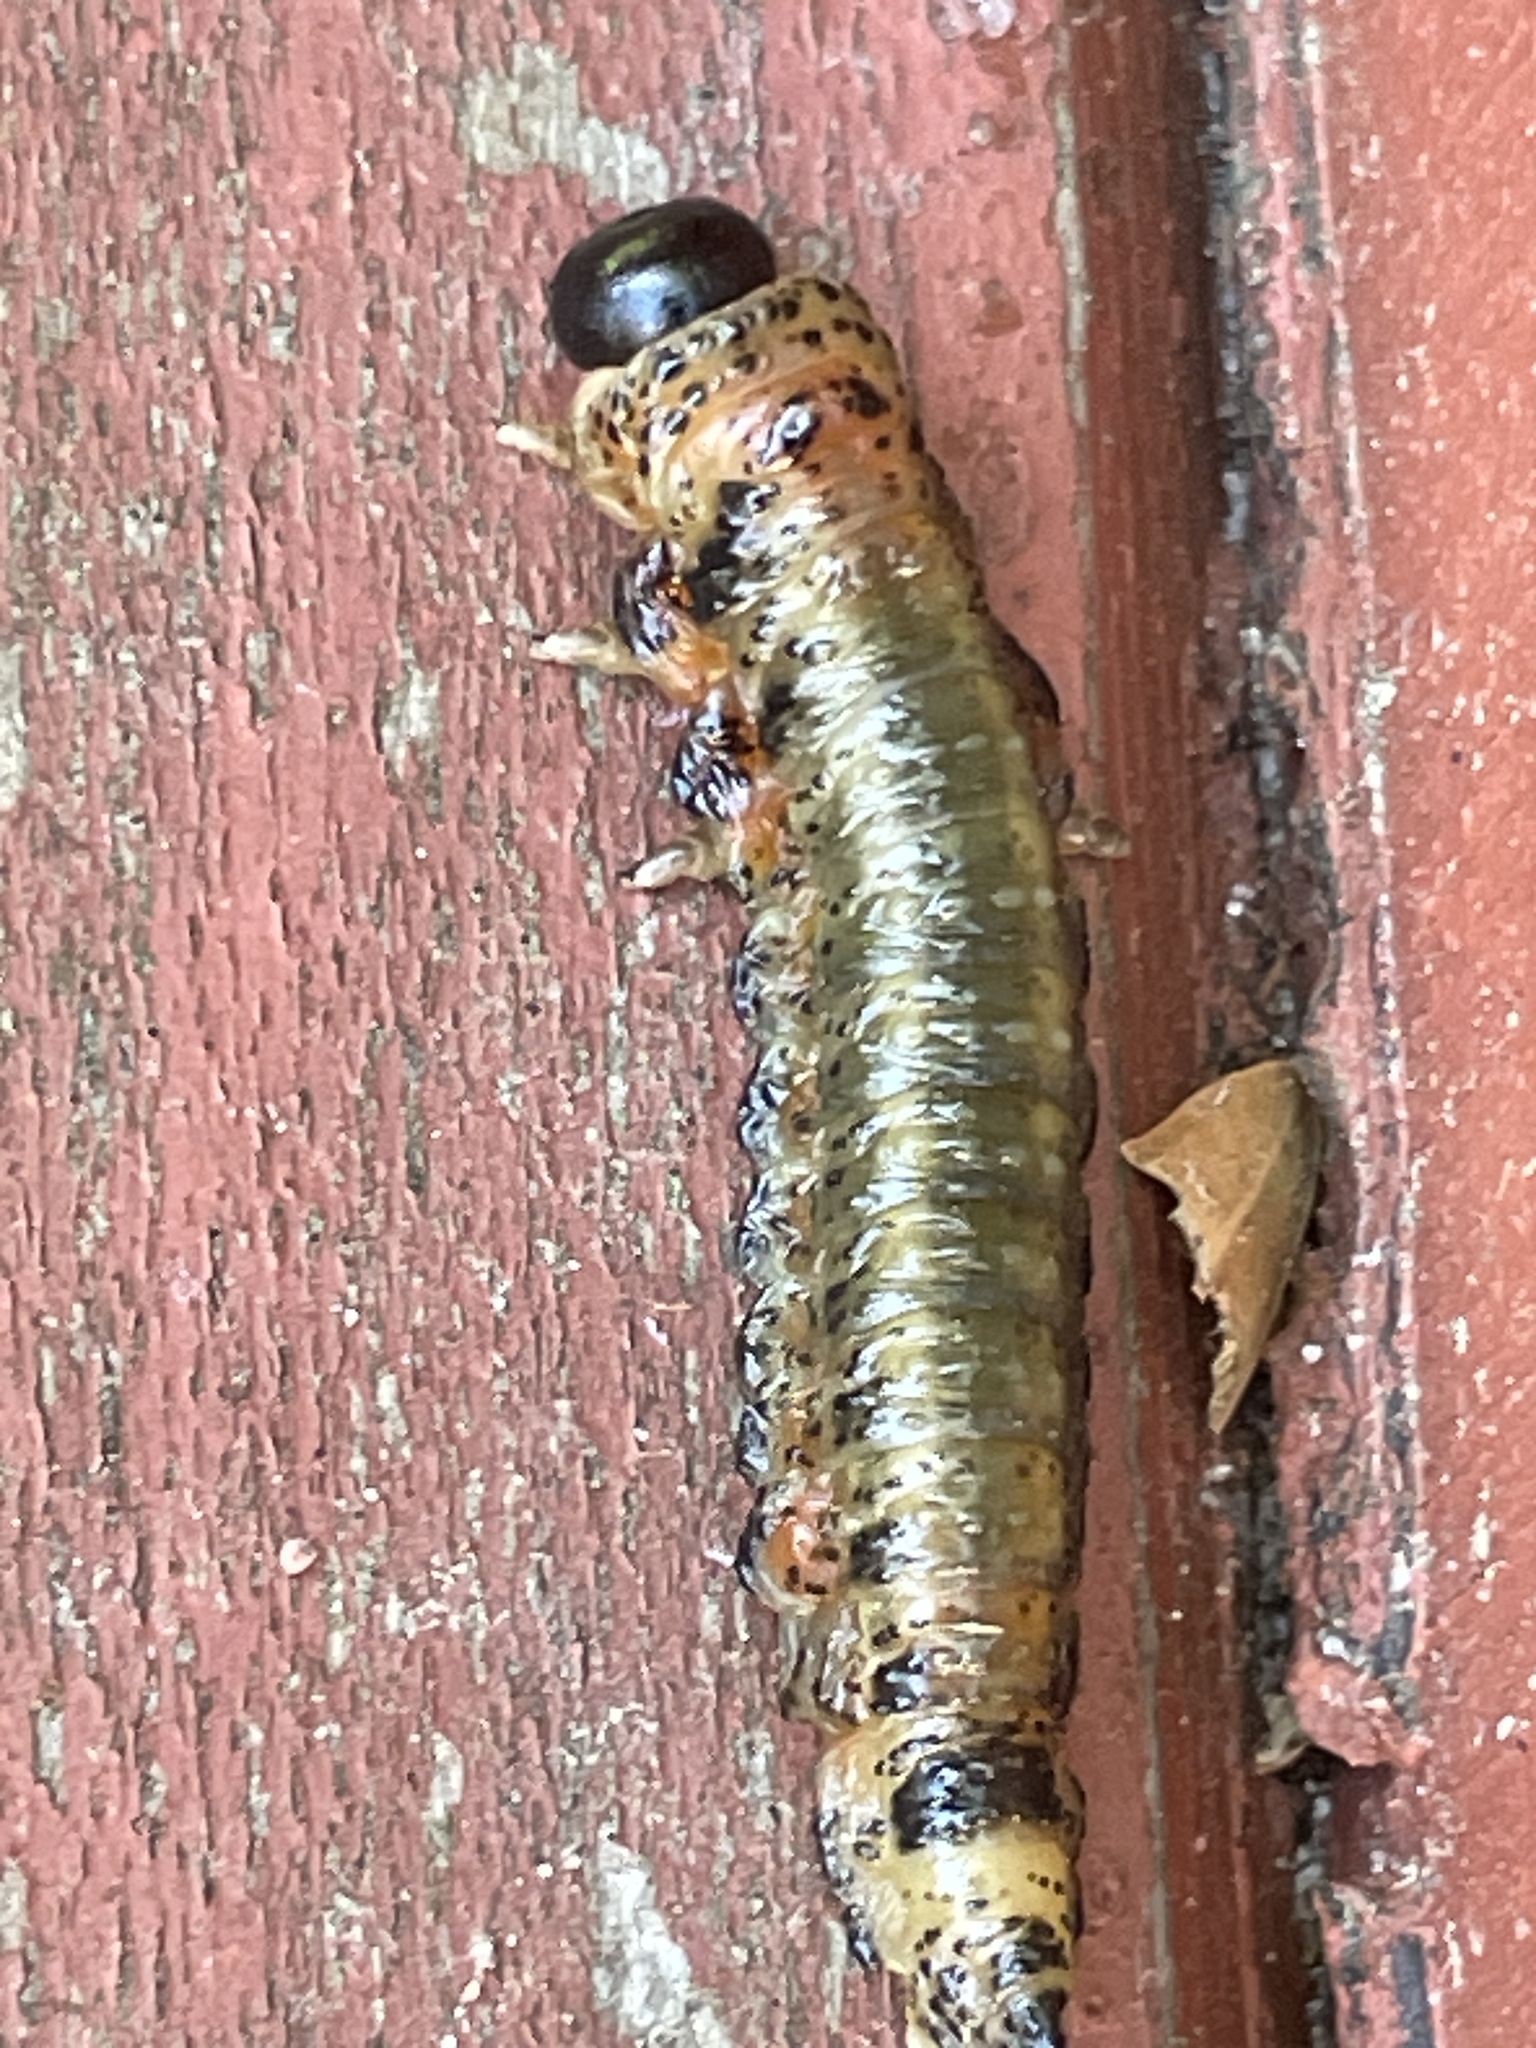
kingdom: Animalia
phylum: Arthropoda
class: Insecta
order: Hymenoptera
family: Pergidae
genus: Pterygophorus
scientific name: Pterygophorus
